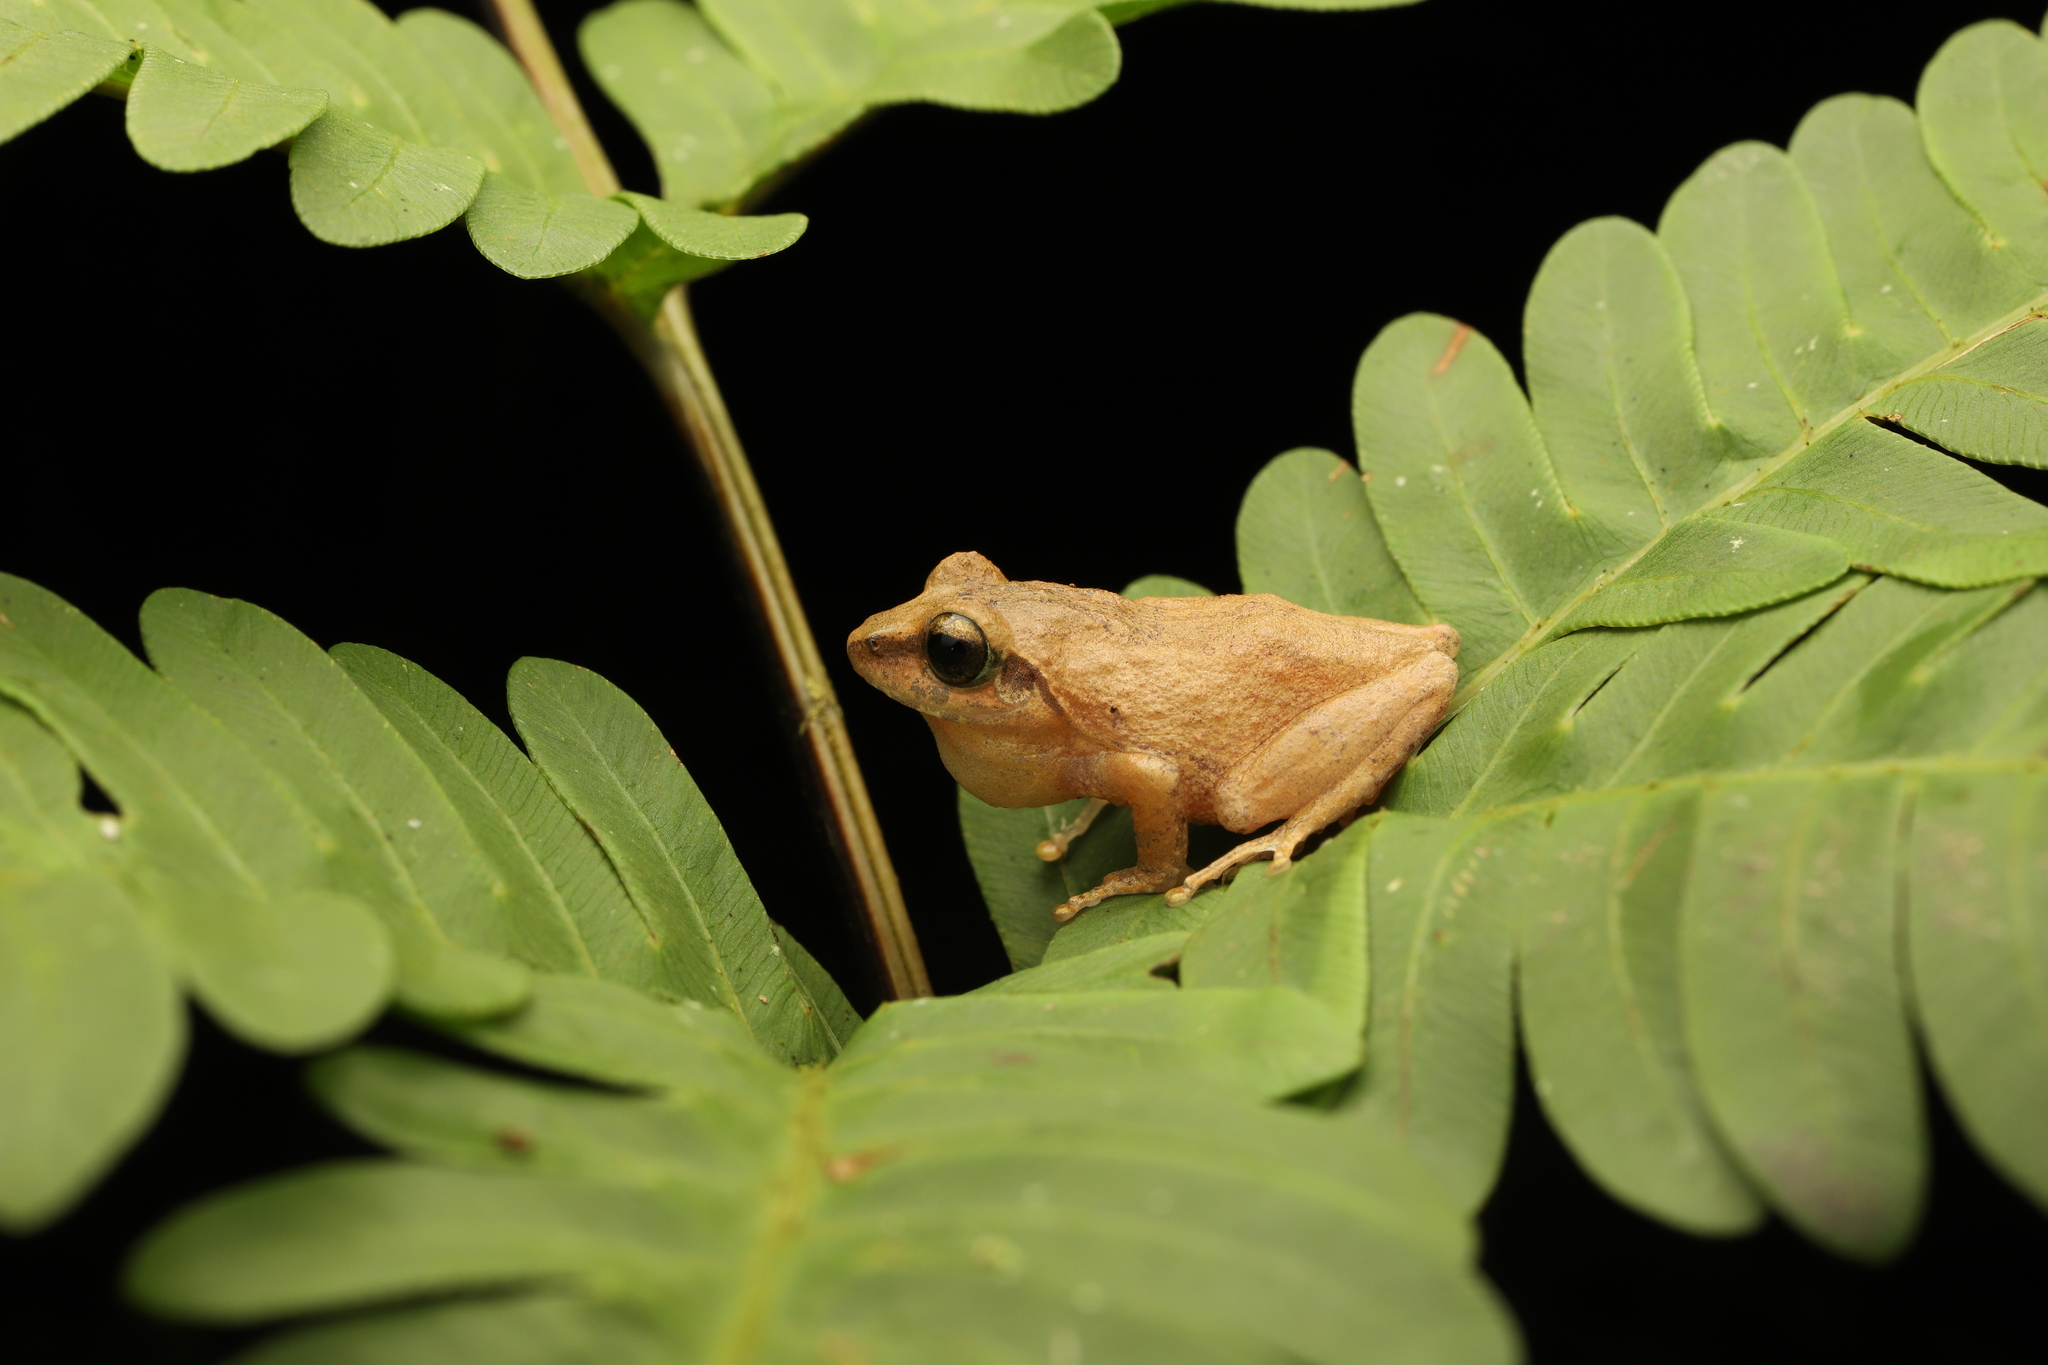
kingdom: Animalia
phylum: Chordata
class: Amphibia
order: Anura
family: Rhacophoridae
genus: Pseudophilautus
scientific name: Pseudophilautus wynaadensis
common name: Dark-eared bush frog
